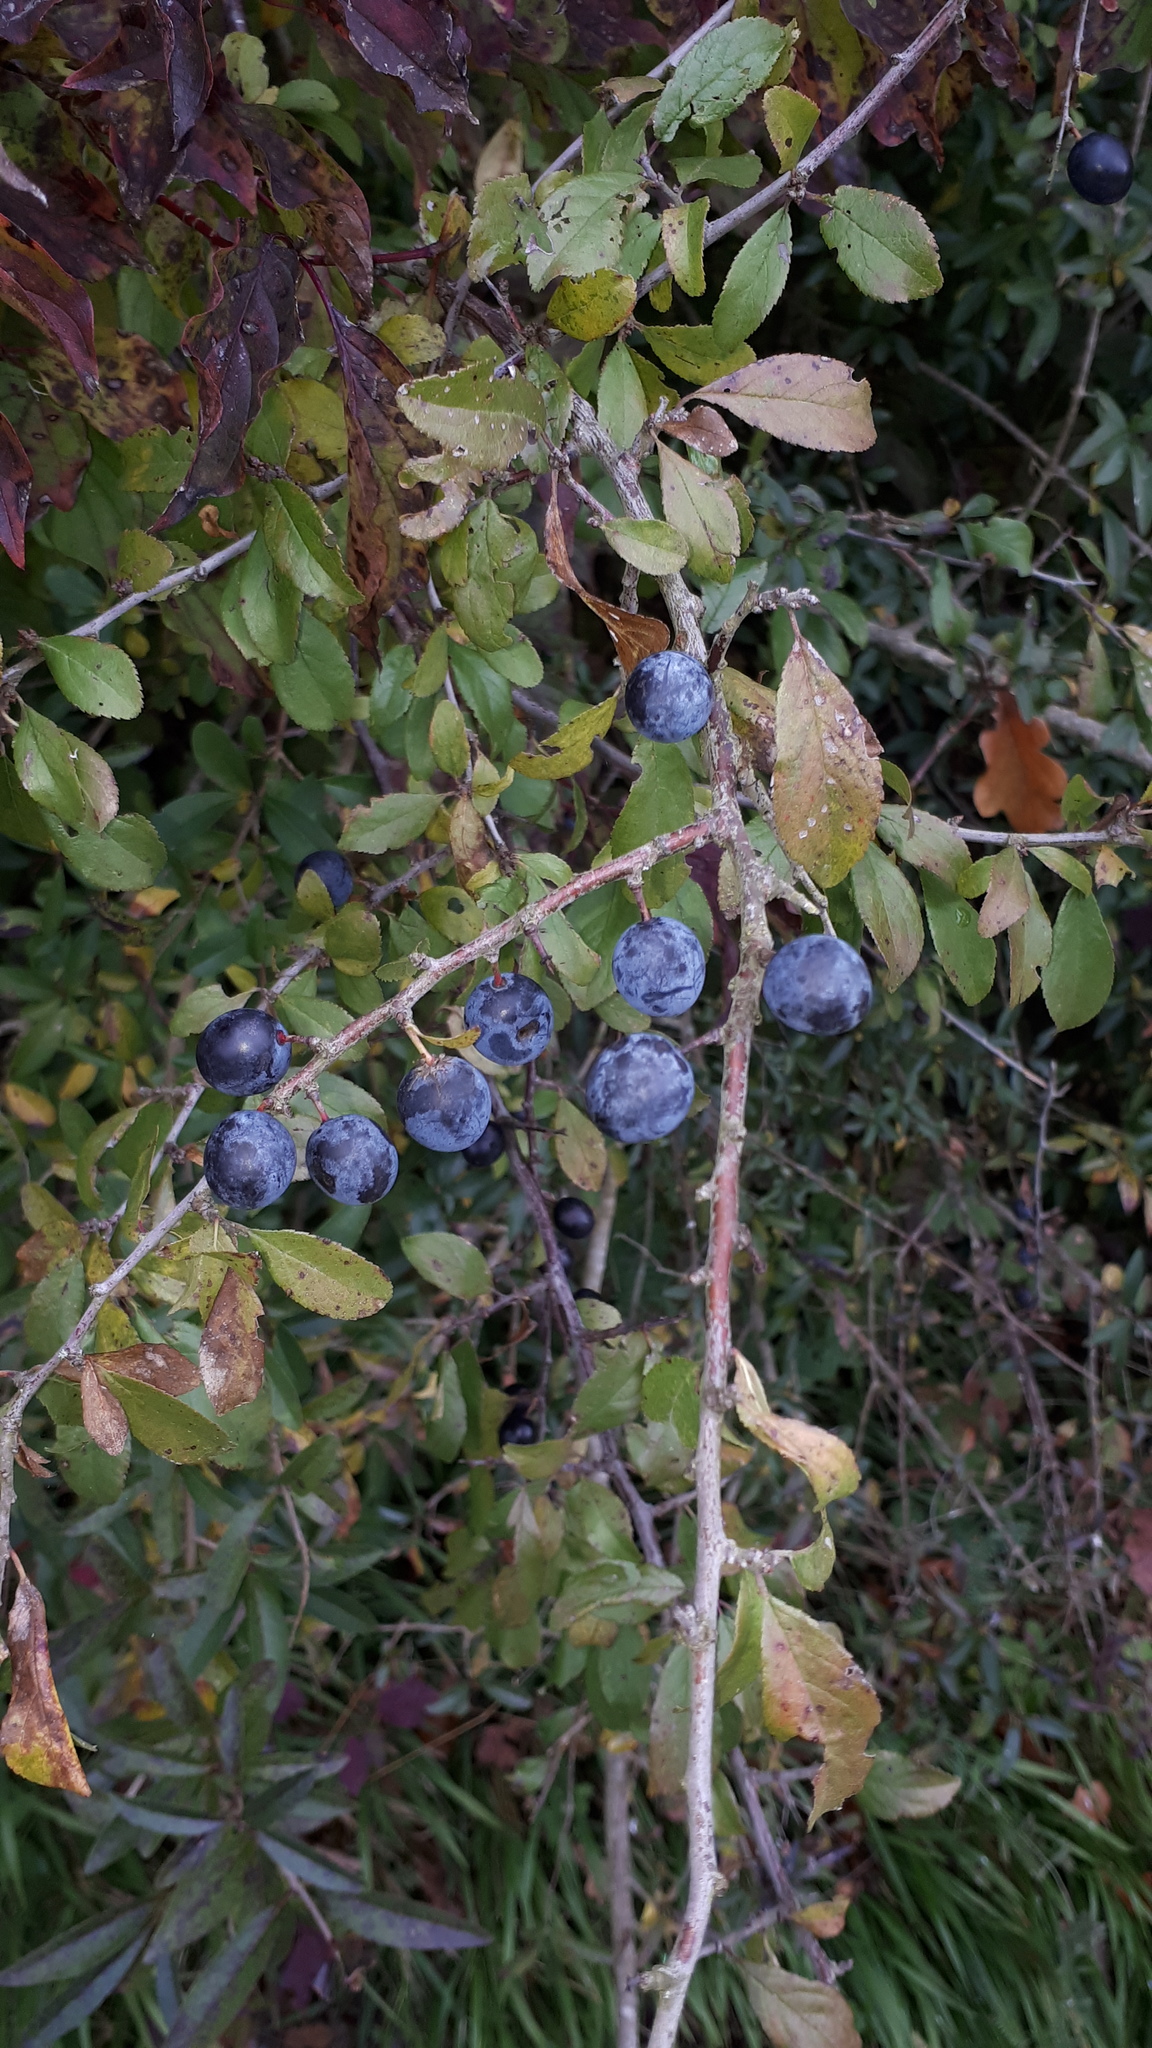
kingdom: Plantae
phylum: Tracheophyta
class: Magnoliopsida
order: Rosales
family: Rosaceae
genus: Prunus
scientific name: Prunus spinosa
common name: Blackthorn
